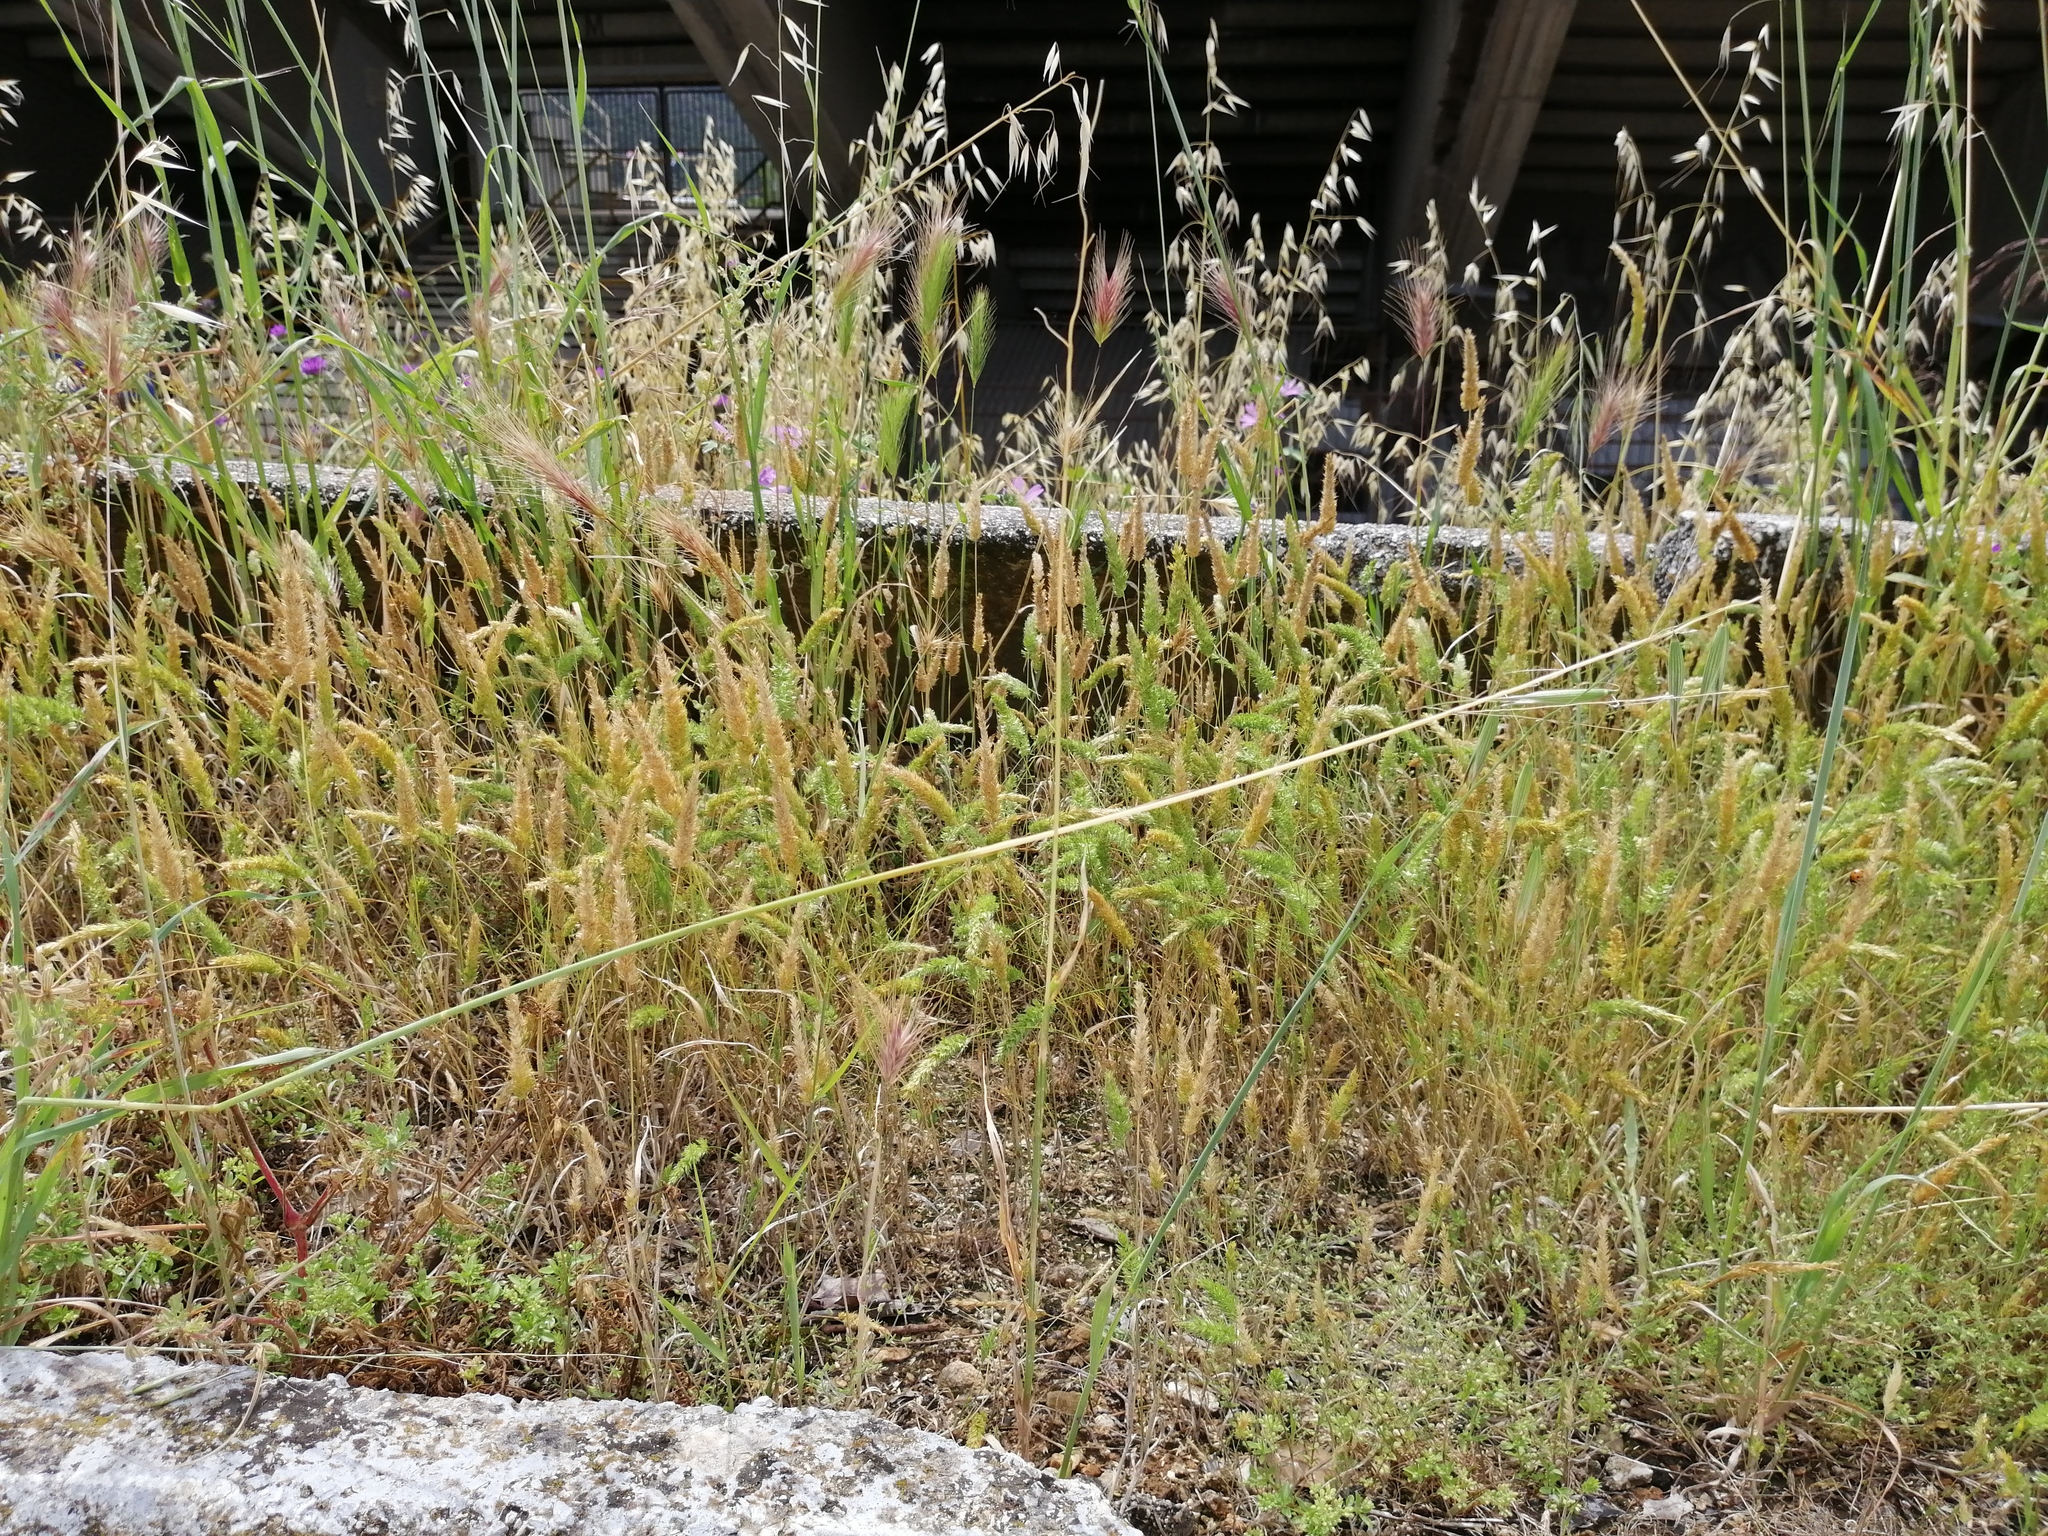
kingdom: Plantae
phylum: Tracheophyta
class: Liliopsida
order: Poales
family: Poaceae
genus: Rostraria
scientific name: Rostraria cristata
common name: Mediterranean hair-grass
